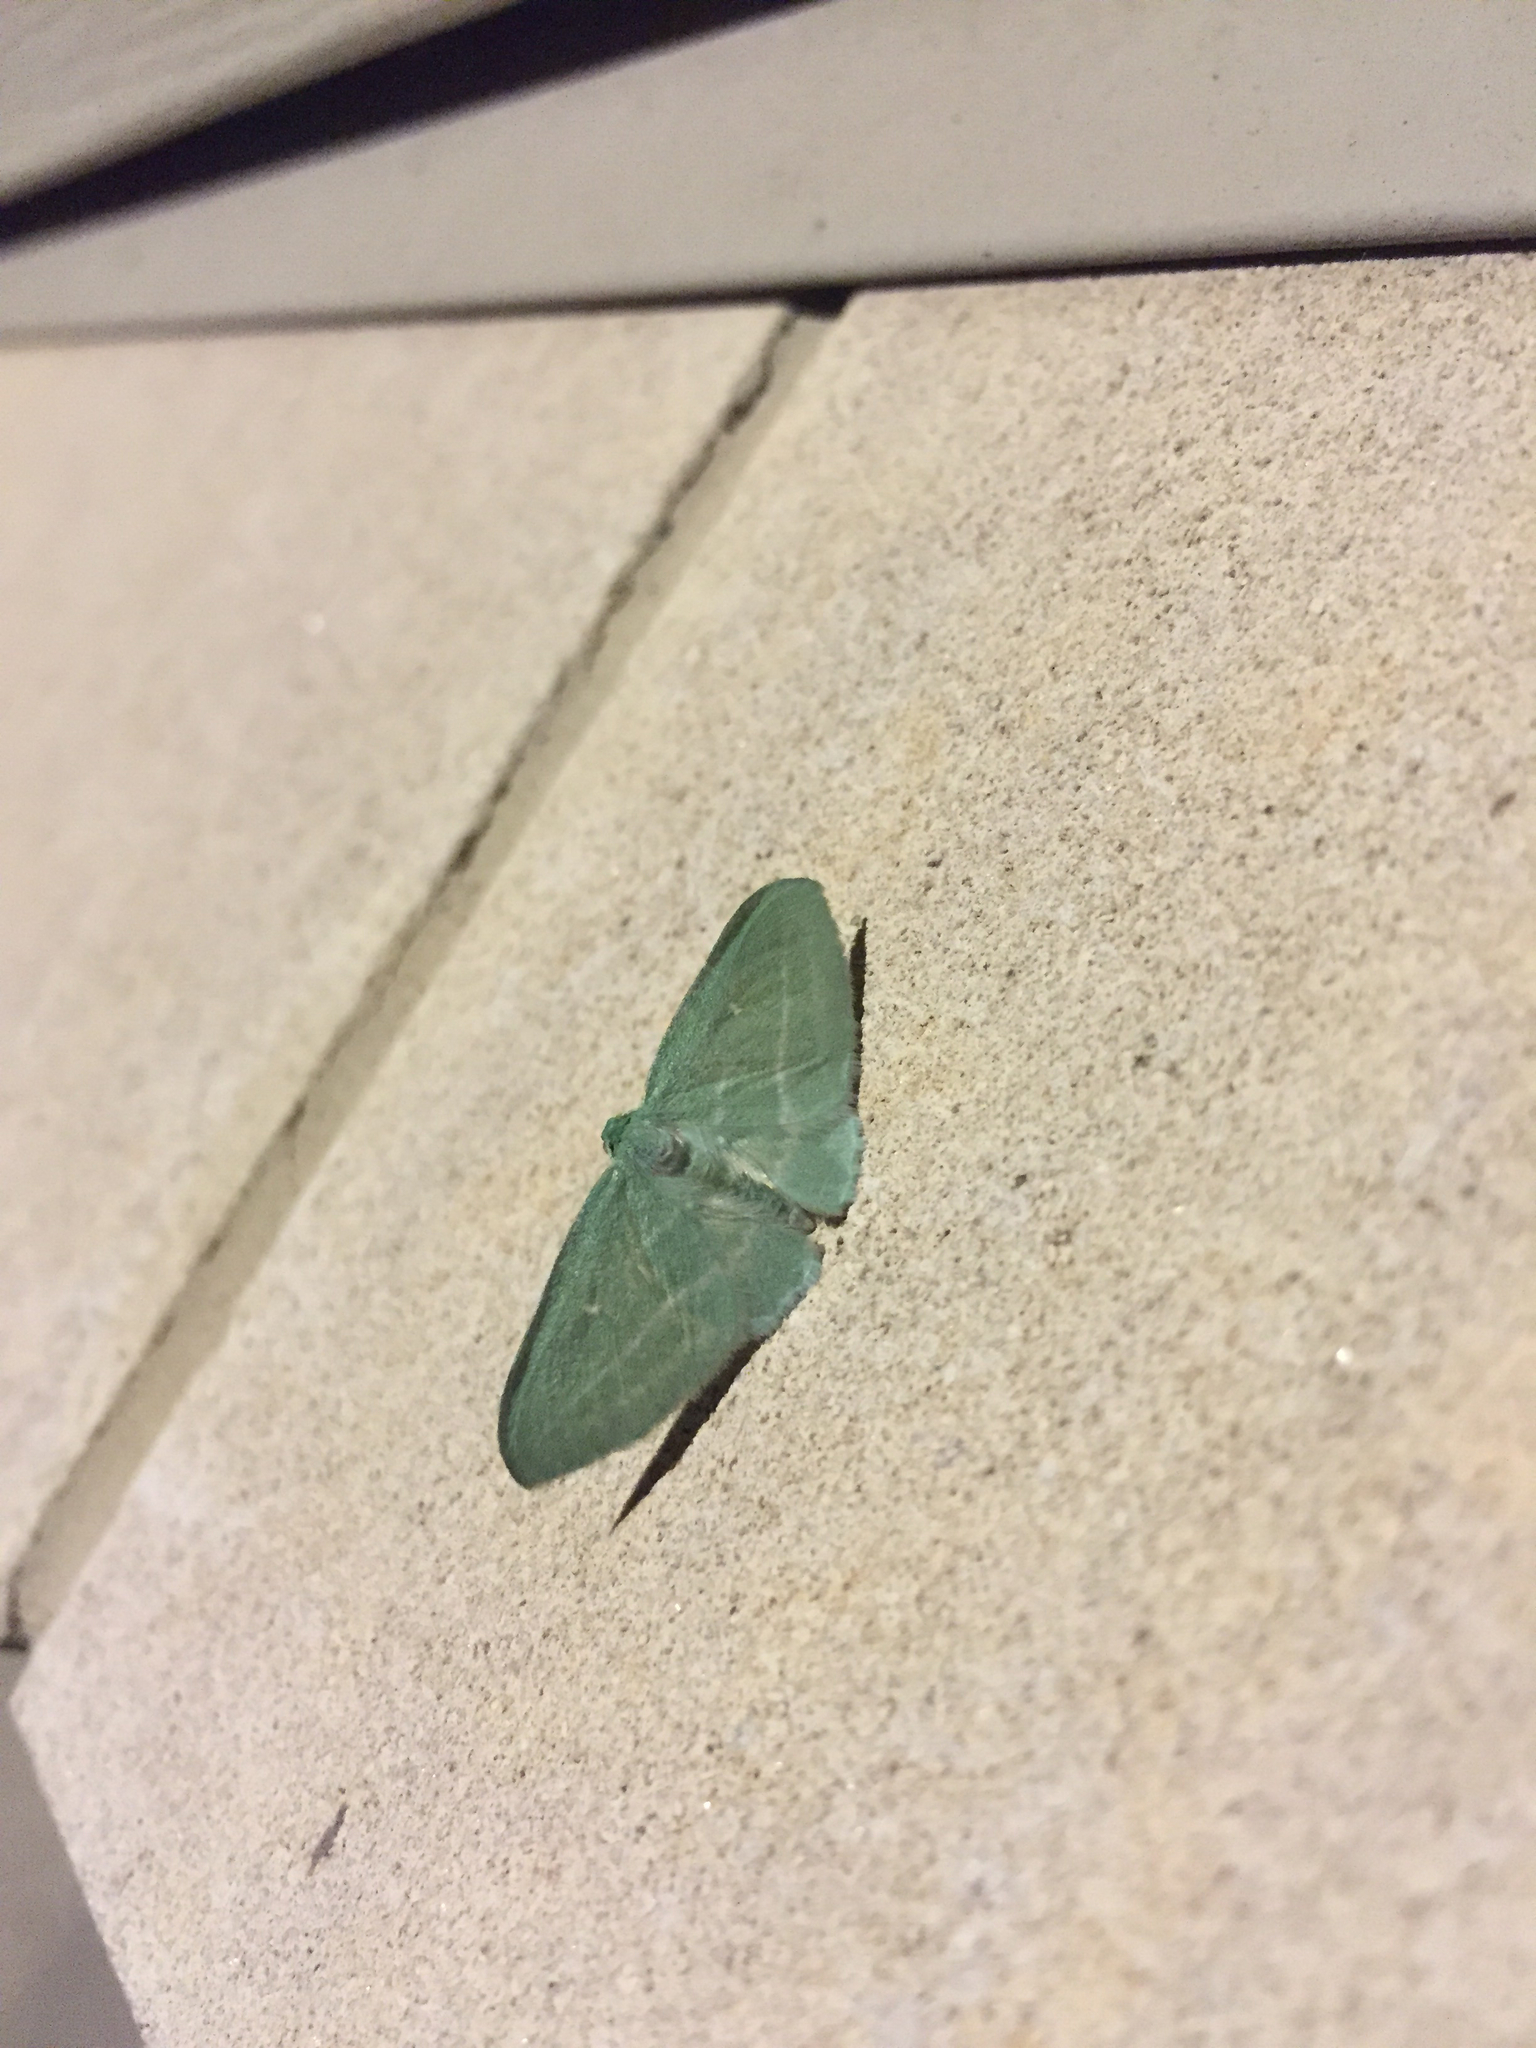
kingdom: Animalia
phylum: Arthropoda
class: Insecta
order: Lepidoptera
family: Geometridae
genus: Dyspteris
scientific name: Dyspteris abortivaria
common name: Bad-wing
